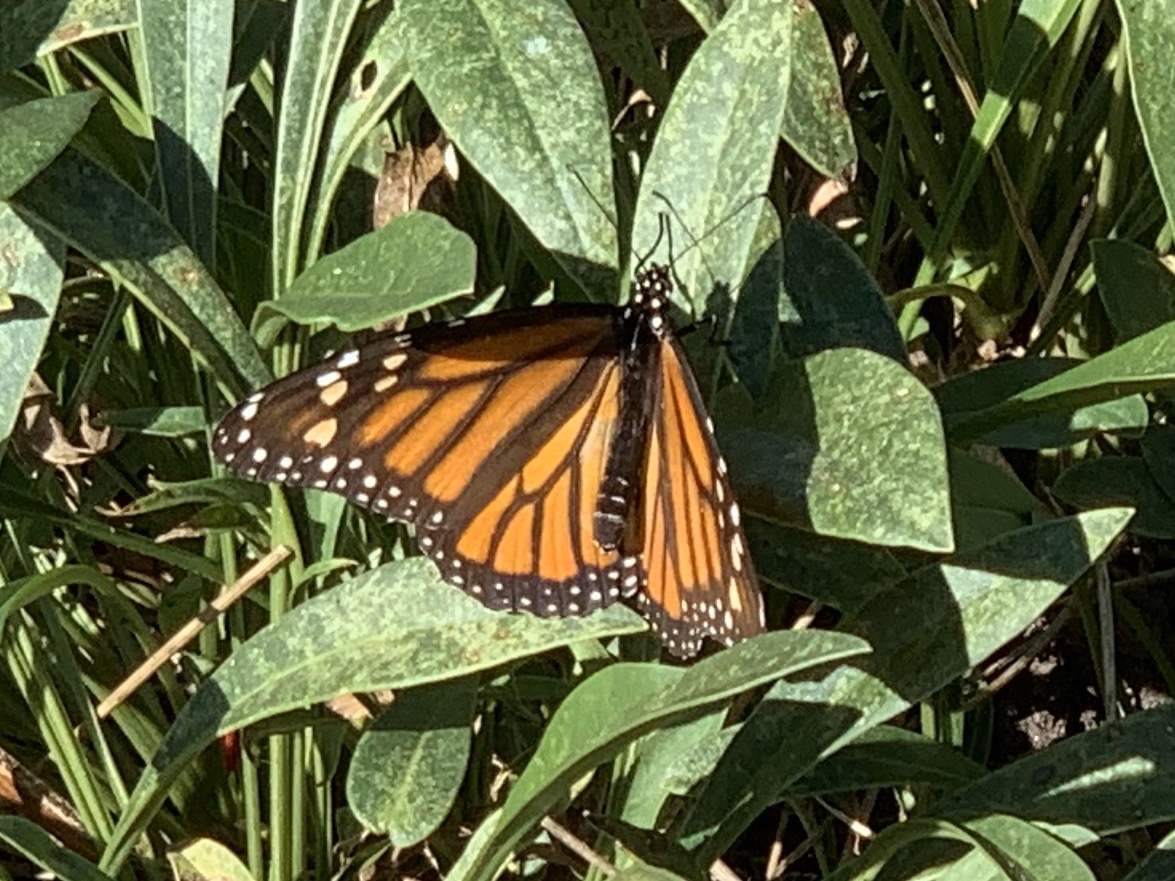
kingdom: Animalia
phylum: Arthropoda
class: Insecta
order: Lepidoptera
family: Nymphalidae
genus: Danaus
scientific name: Danaus plexippus
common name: Monarch
